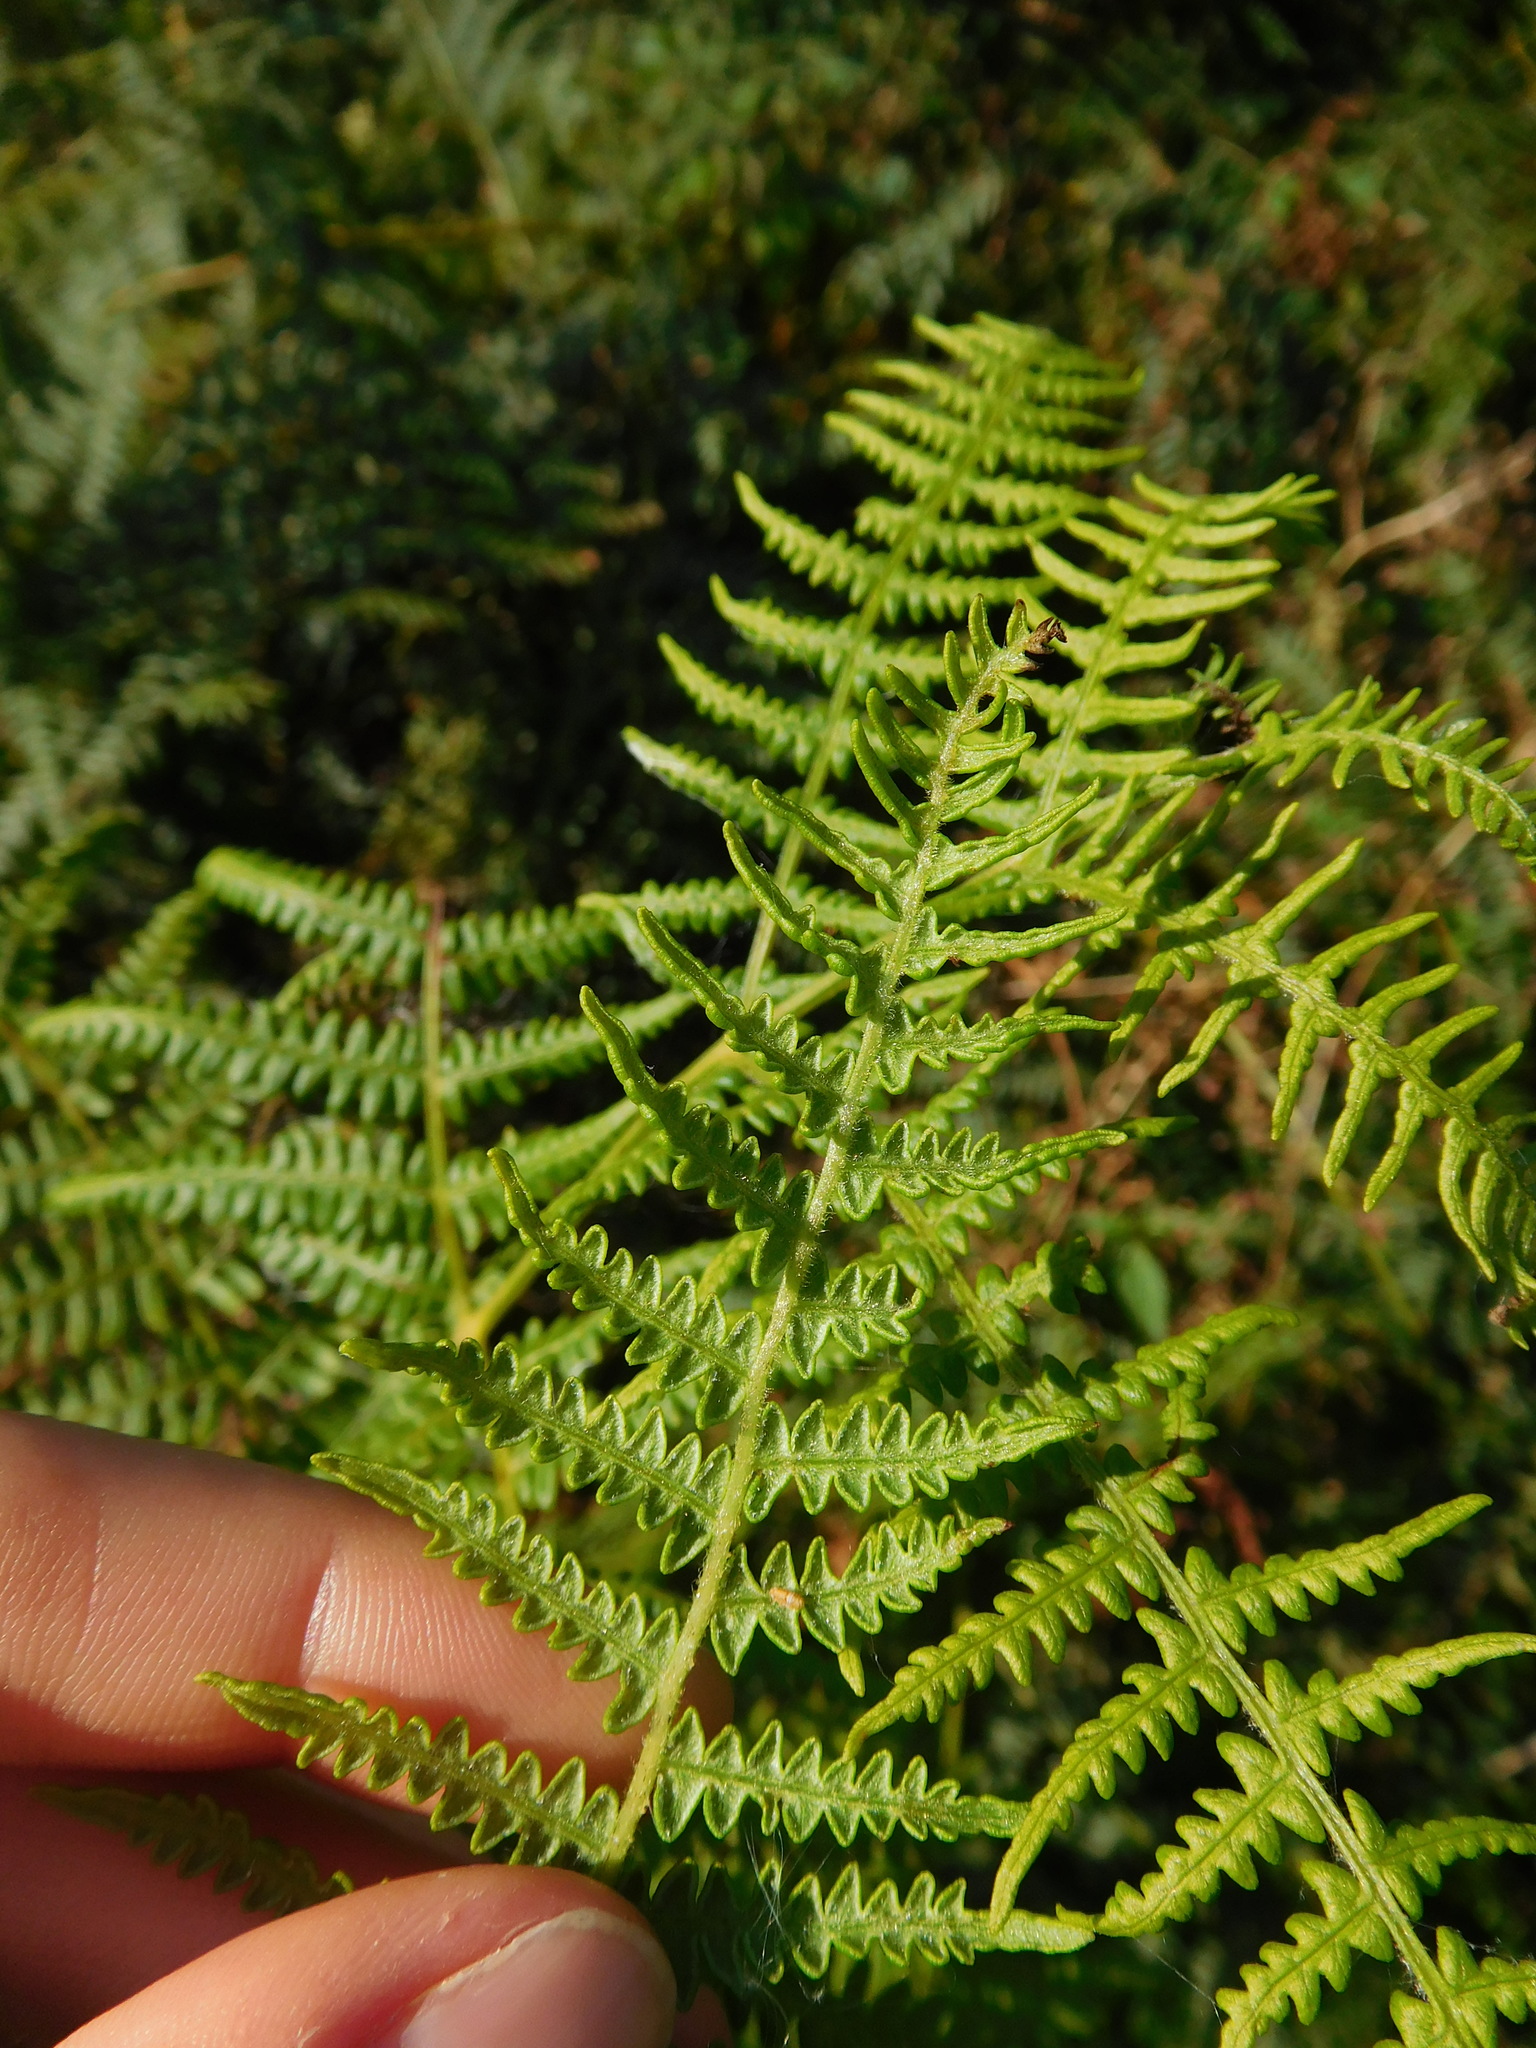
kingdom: Plantae
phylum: Tracheophyta
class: Polypodiopsida
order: Polypodiales
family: Dennstaedtiaceae
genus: Pteridium
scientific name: Pteridium aquilinum
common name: Bracken
